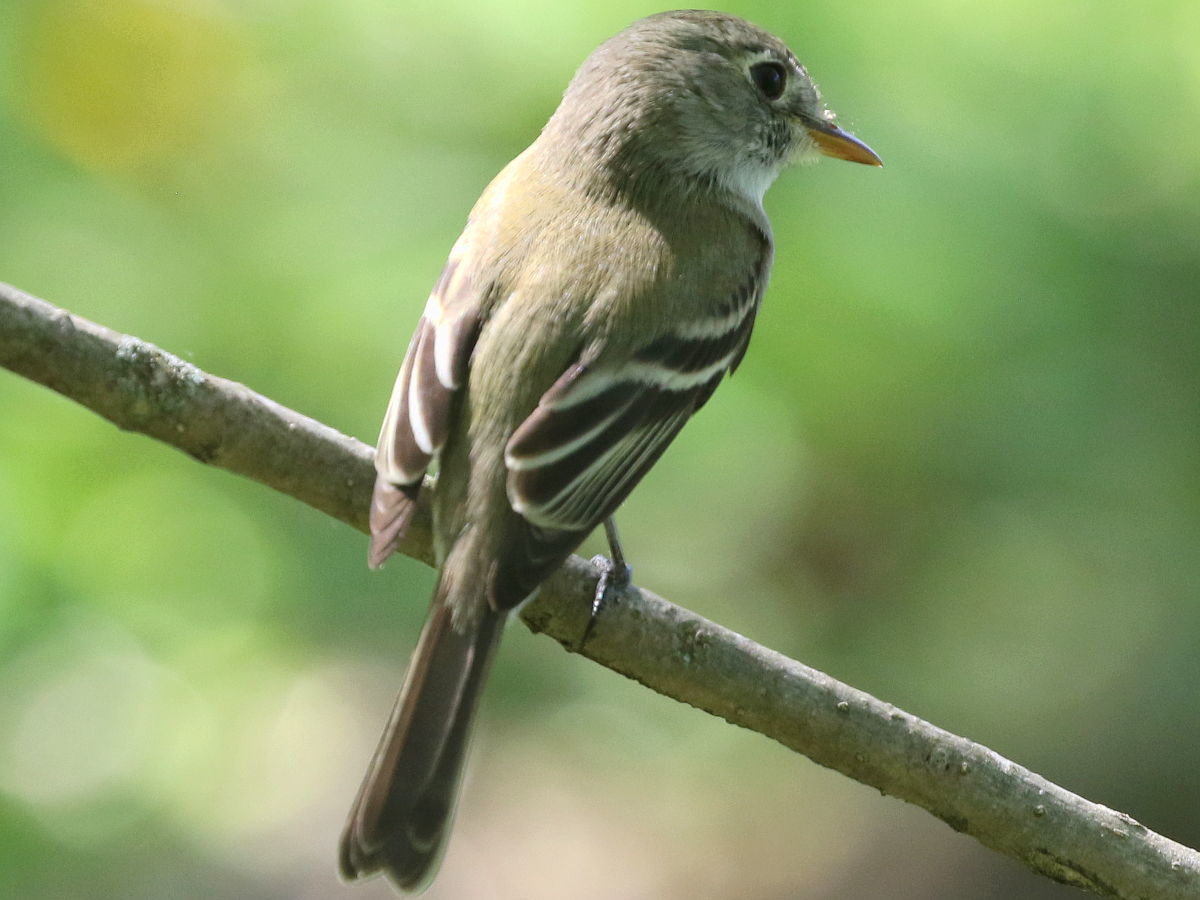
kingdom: Animalia
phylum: Chordata
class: Aves
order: Passeriformes
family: Tyrannidae
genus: Empidonax
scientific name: Empidonax minimus
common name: Least flycatcher
